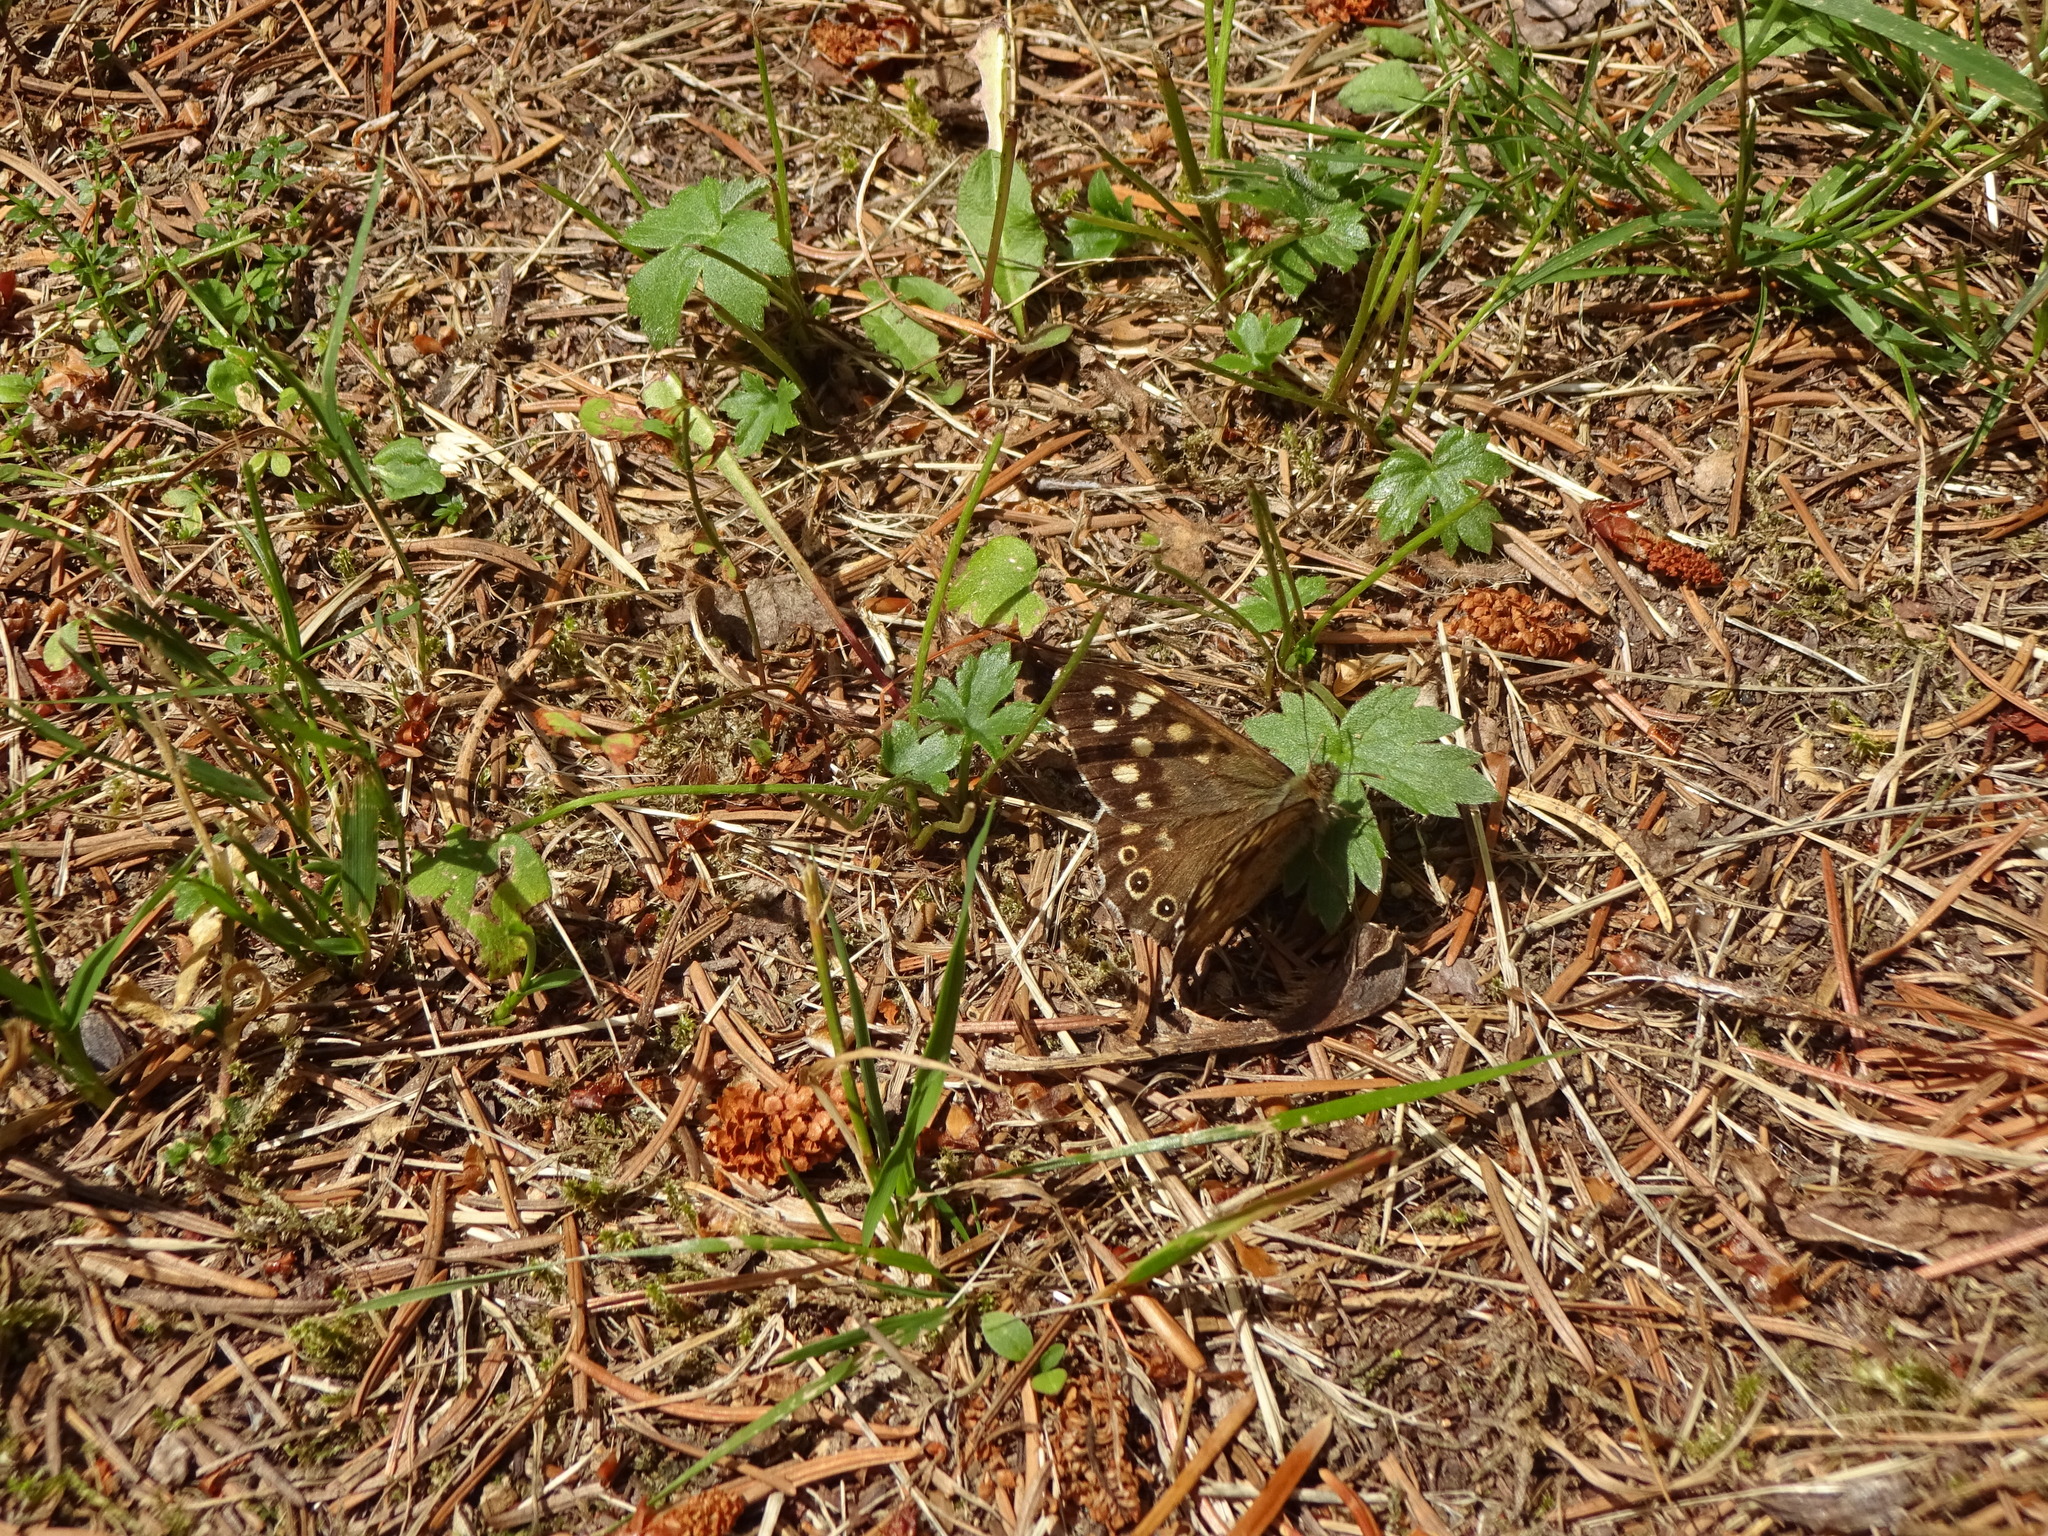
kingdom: Animalia
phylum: Arthropoda
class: Insecta
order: Lepidoptera
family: Nymphalidae
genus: Pararge
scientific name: Pararge aegeria
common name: Speckled wood
